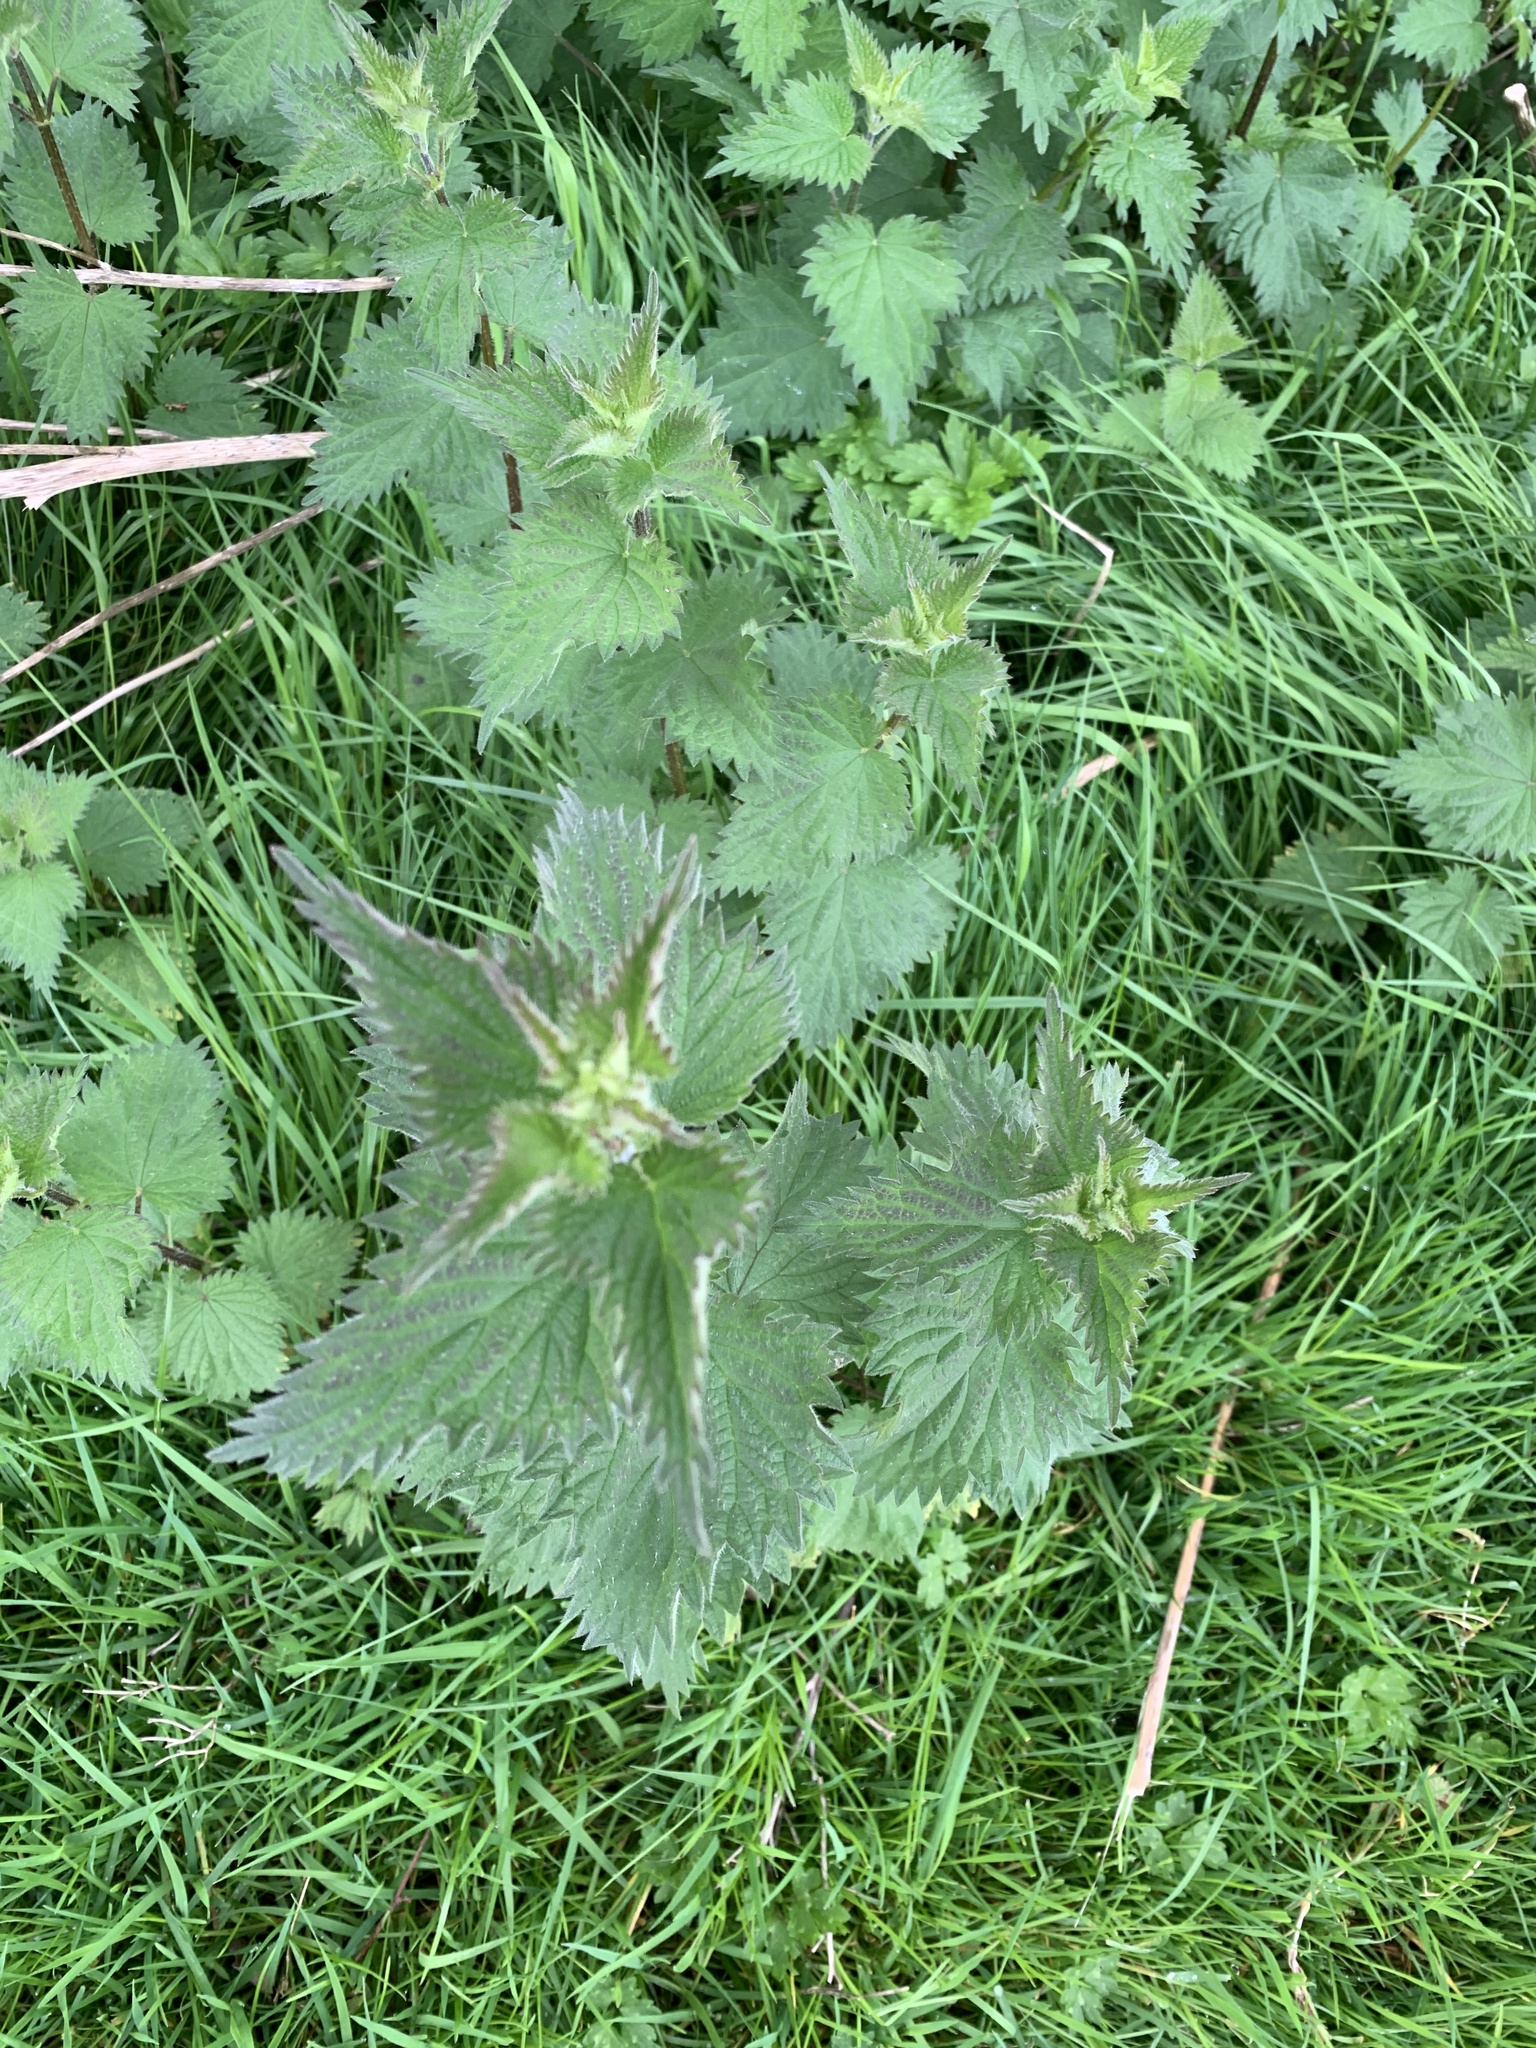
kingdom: Plantae
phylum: Tracheophyta
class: Magnoliopsida
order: Rosales
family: Urticaceae
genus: Urtica
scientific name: Urtica dioica
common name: Common nettle
